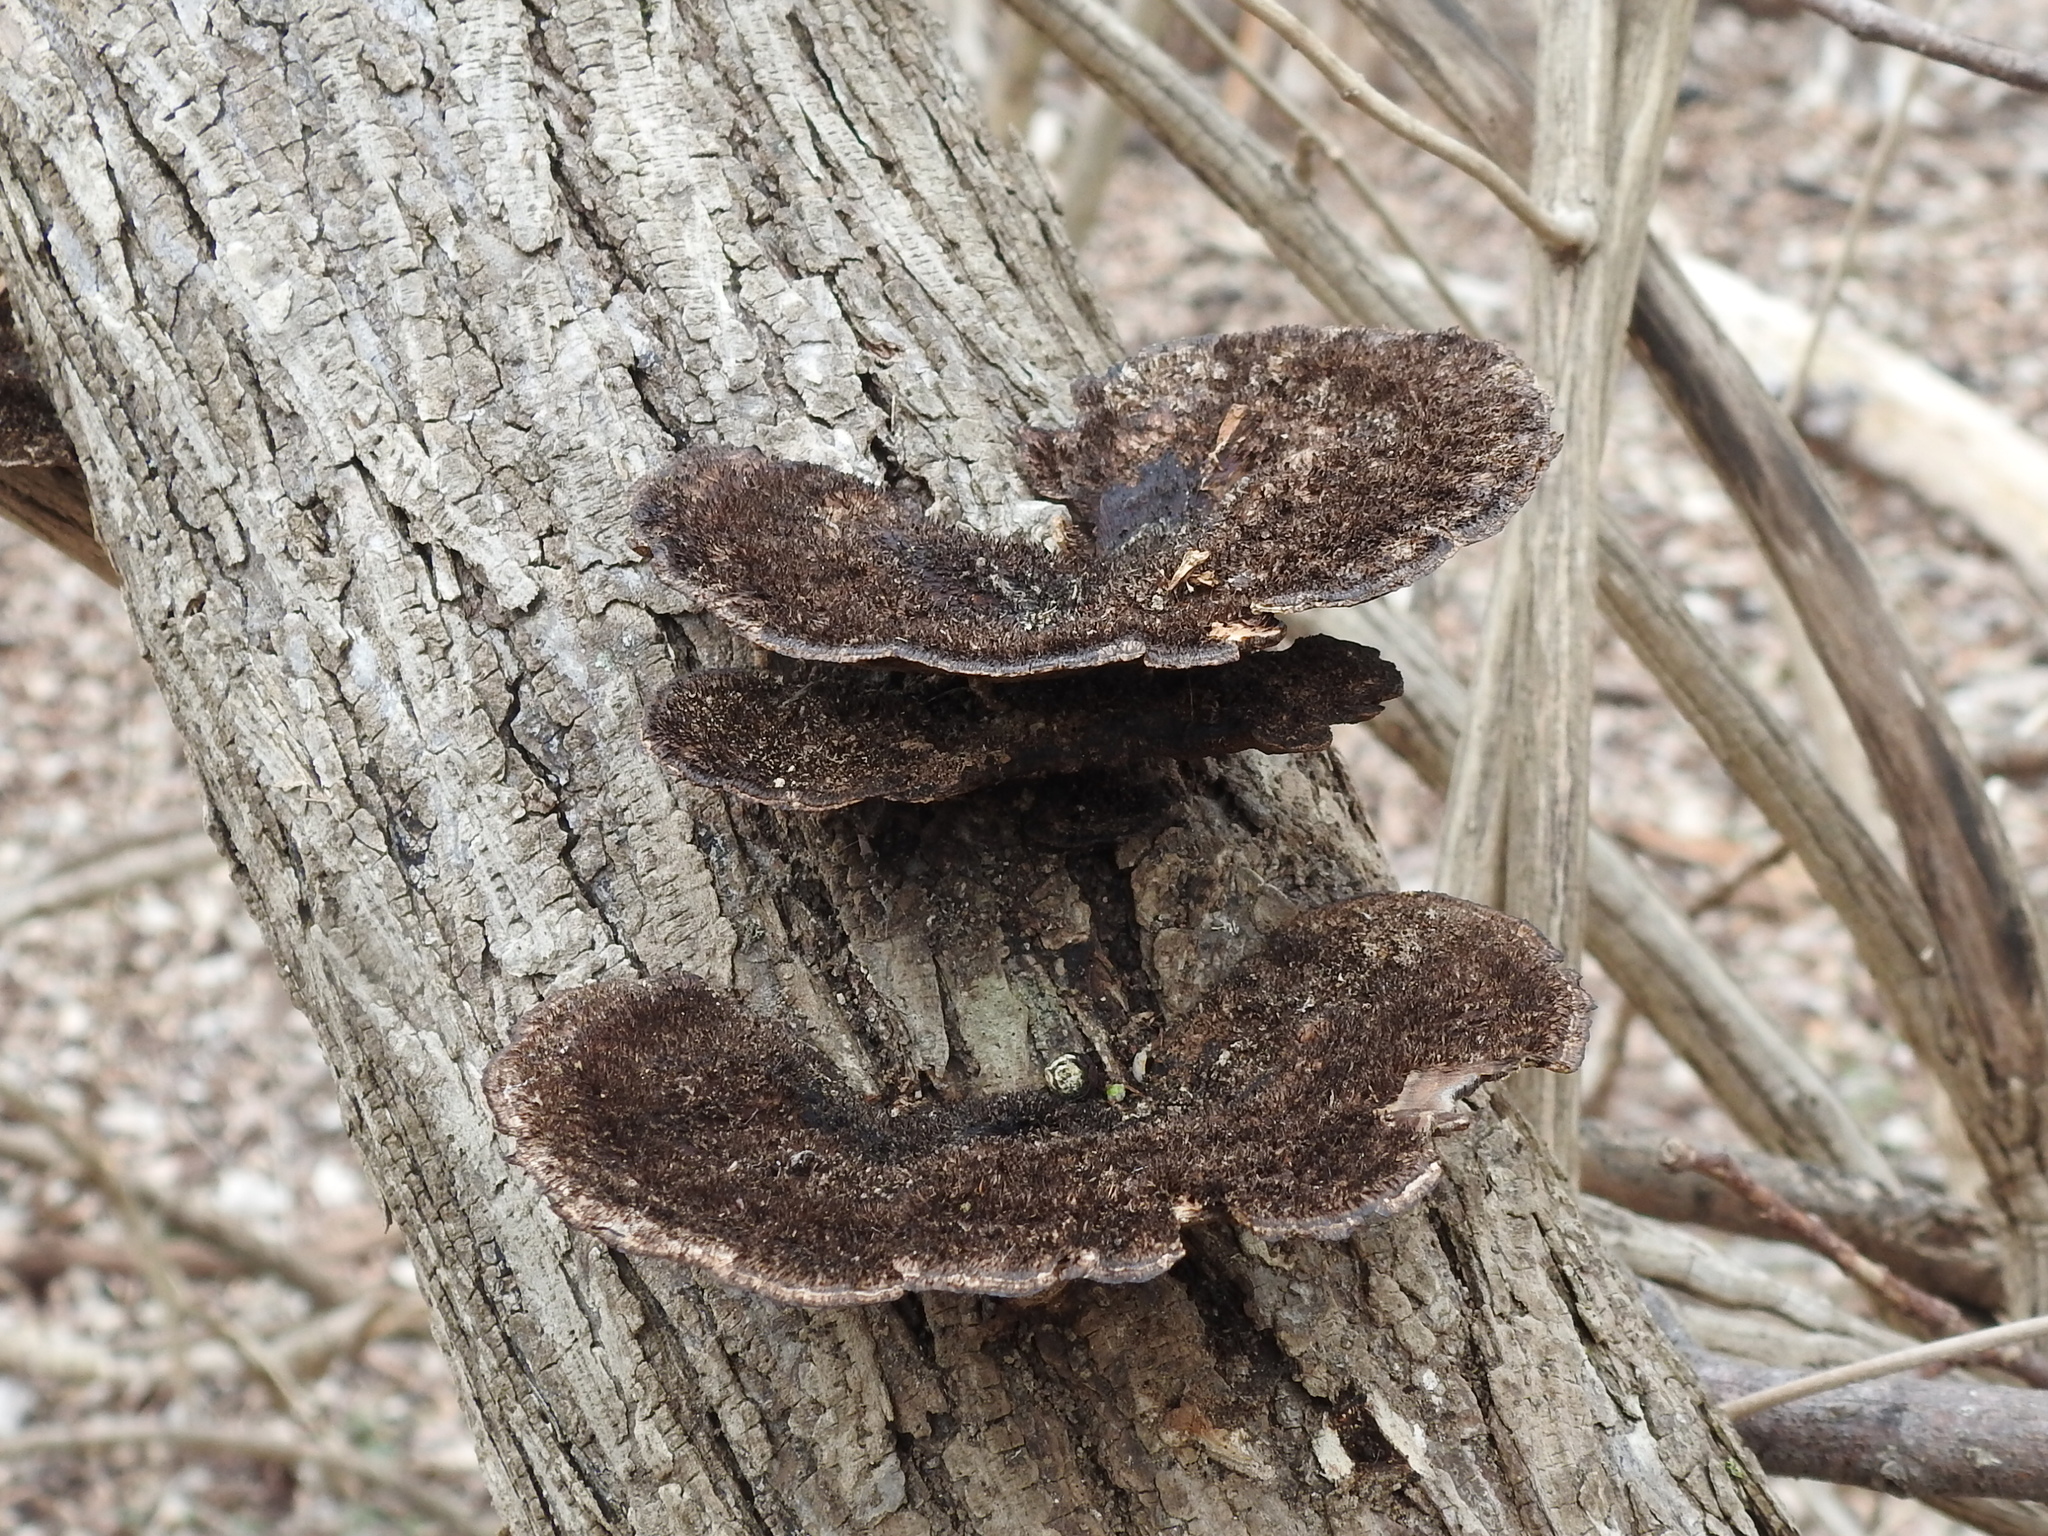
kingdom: Fungi
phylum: Basidiomycota
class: Agaricomycetes
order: Polyporales
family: Cerrenaceae
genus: Cerrena
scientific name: Cerrena hydnoides
